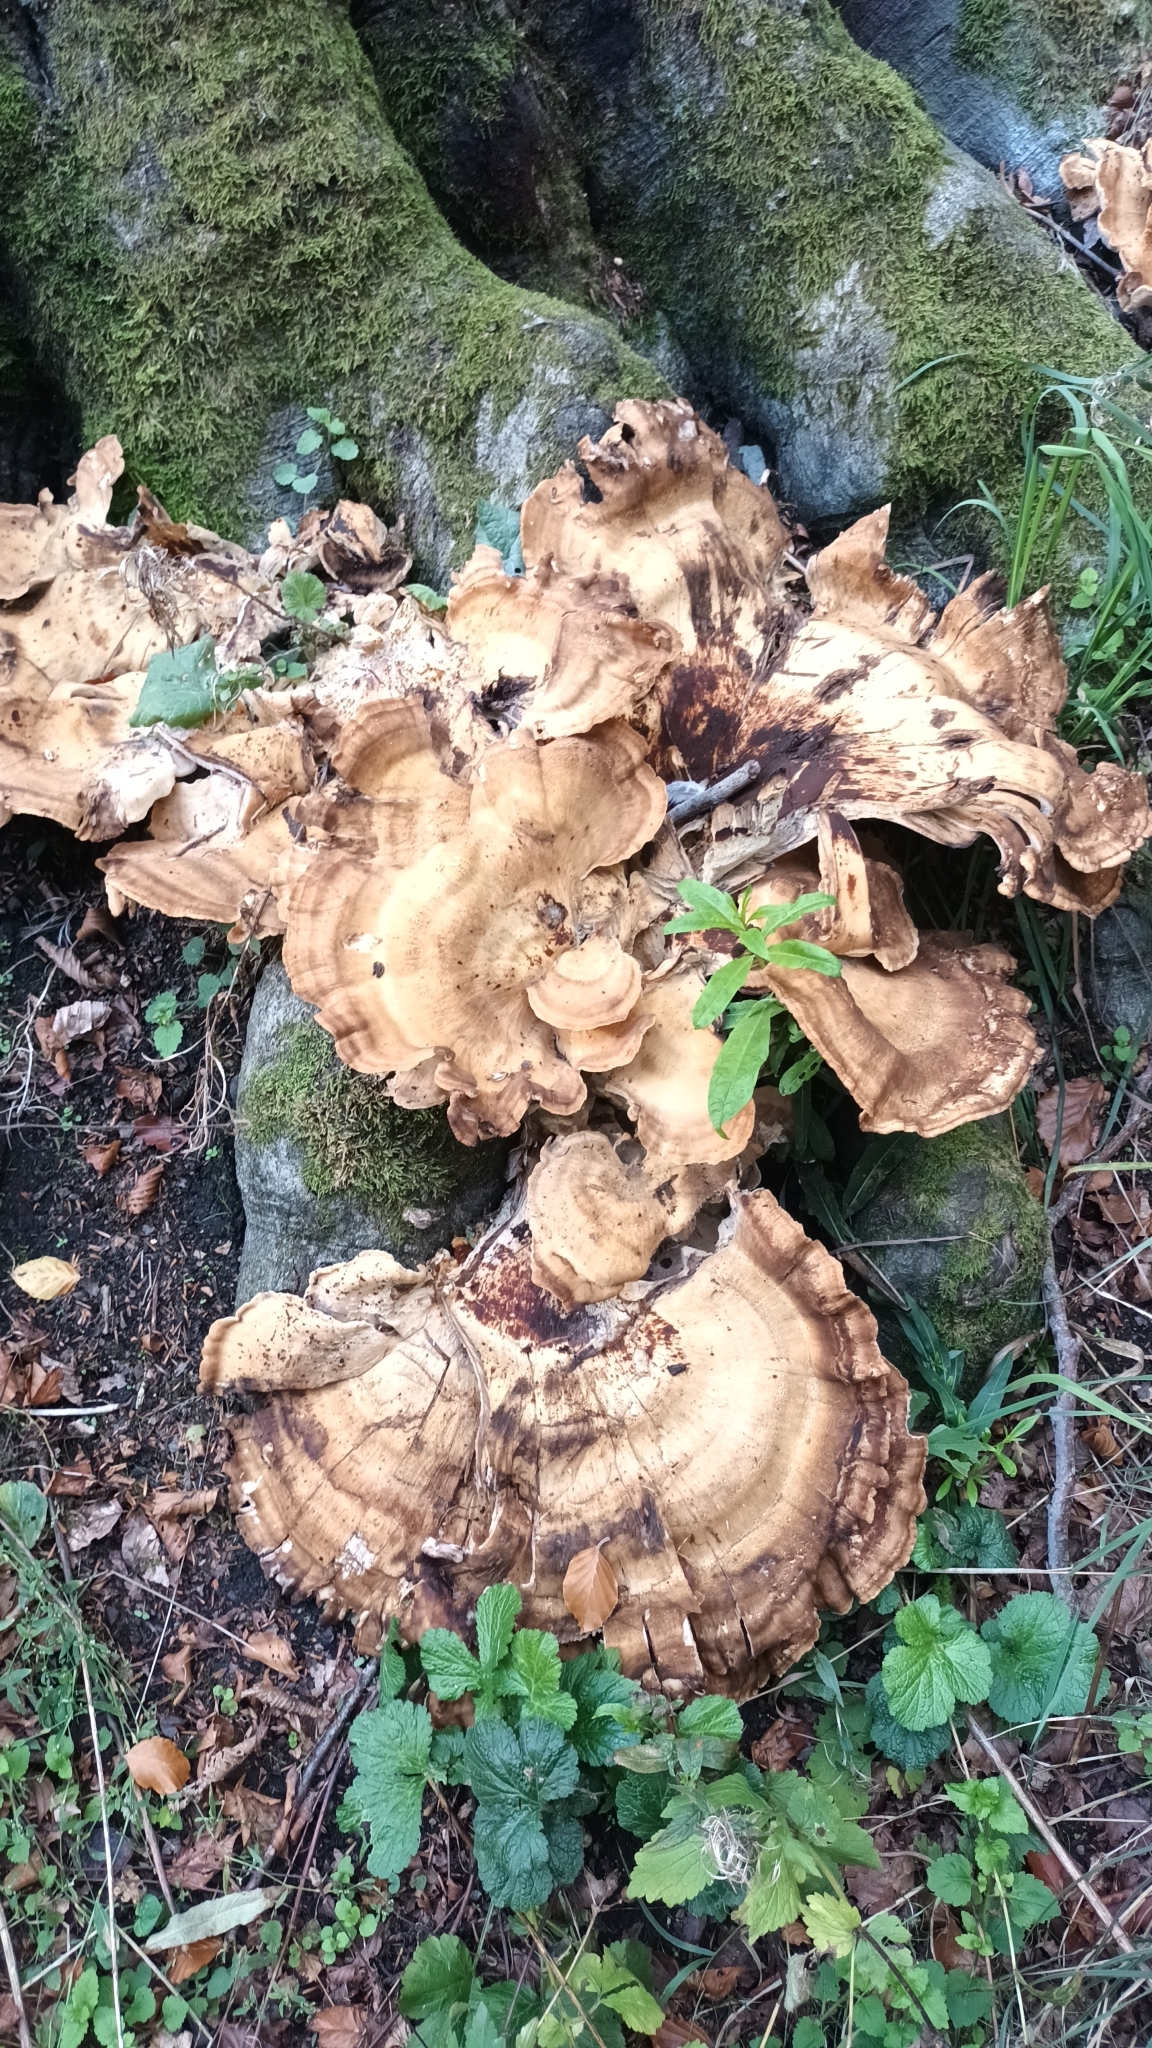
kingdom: Fungi
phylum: Basidiomycota
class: Agaricomycetes
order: Polyporales
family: Meripilaceae
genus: Meripilus
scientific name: Meripilus giganteus
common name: Giant polypore
